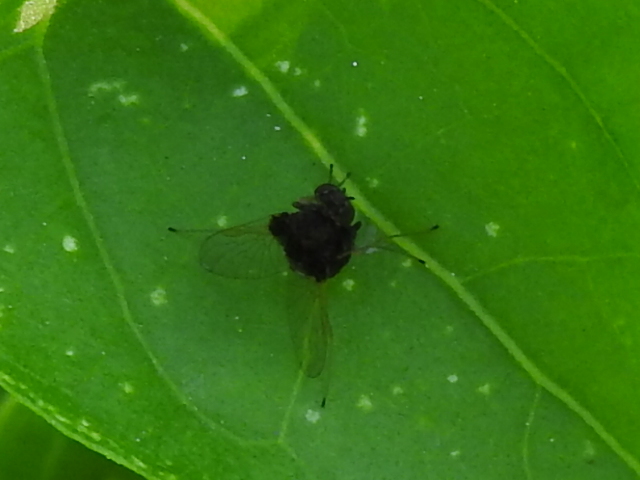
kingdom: Animalia
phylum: Arthropoda
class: Insecta
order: Diptera
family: Rhagionidae
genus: Chrysopilus
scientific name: Chrysopilus basilaris
